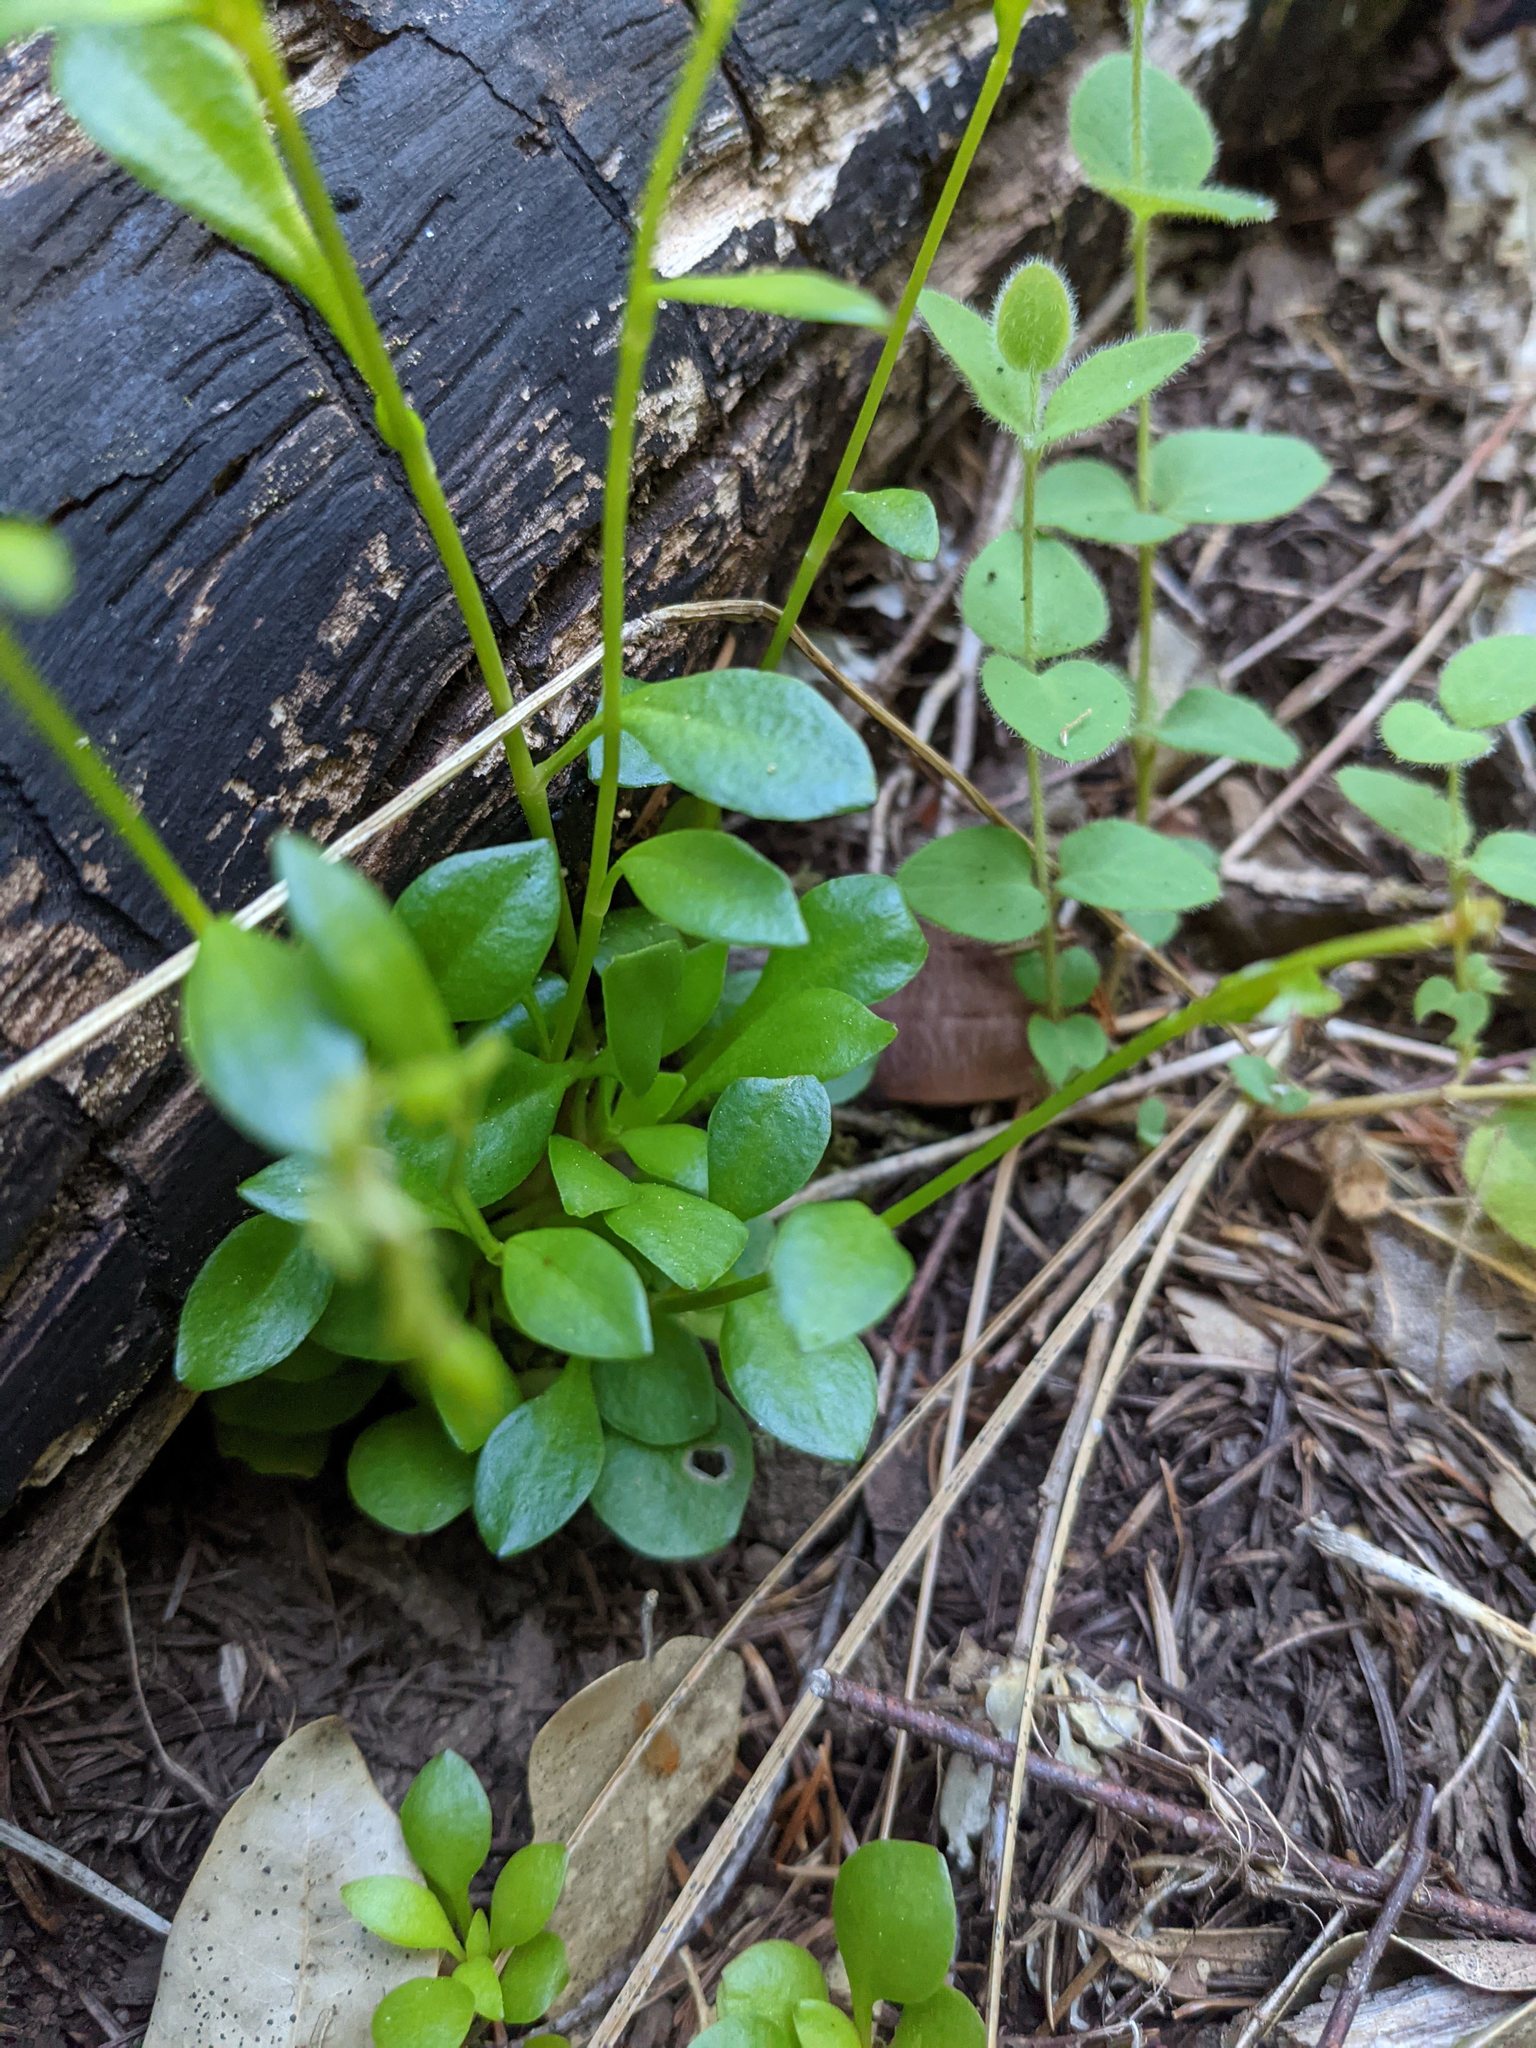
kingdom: Plantae
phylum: Tracheophyta
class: Magnoliopsida
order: Caryophyllales
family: Montiaceae
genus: Montia
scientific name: Montia parvifolia
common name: Small-leaved blinks
